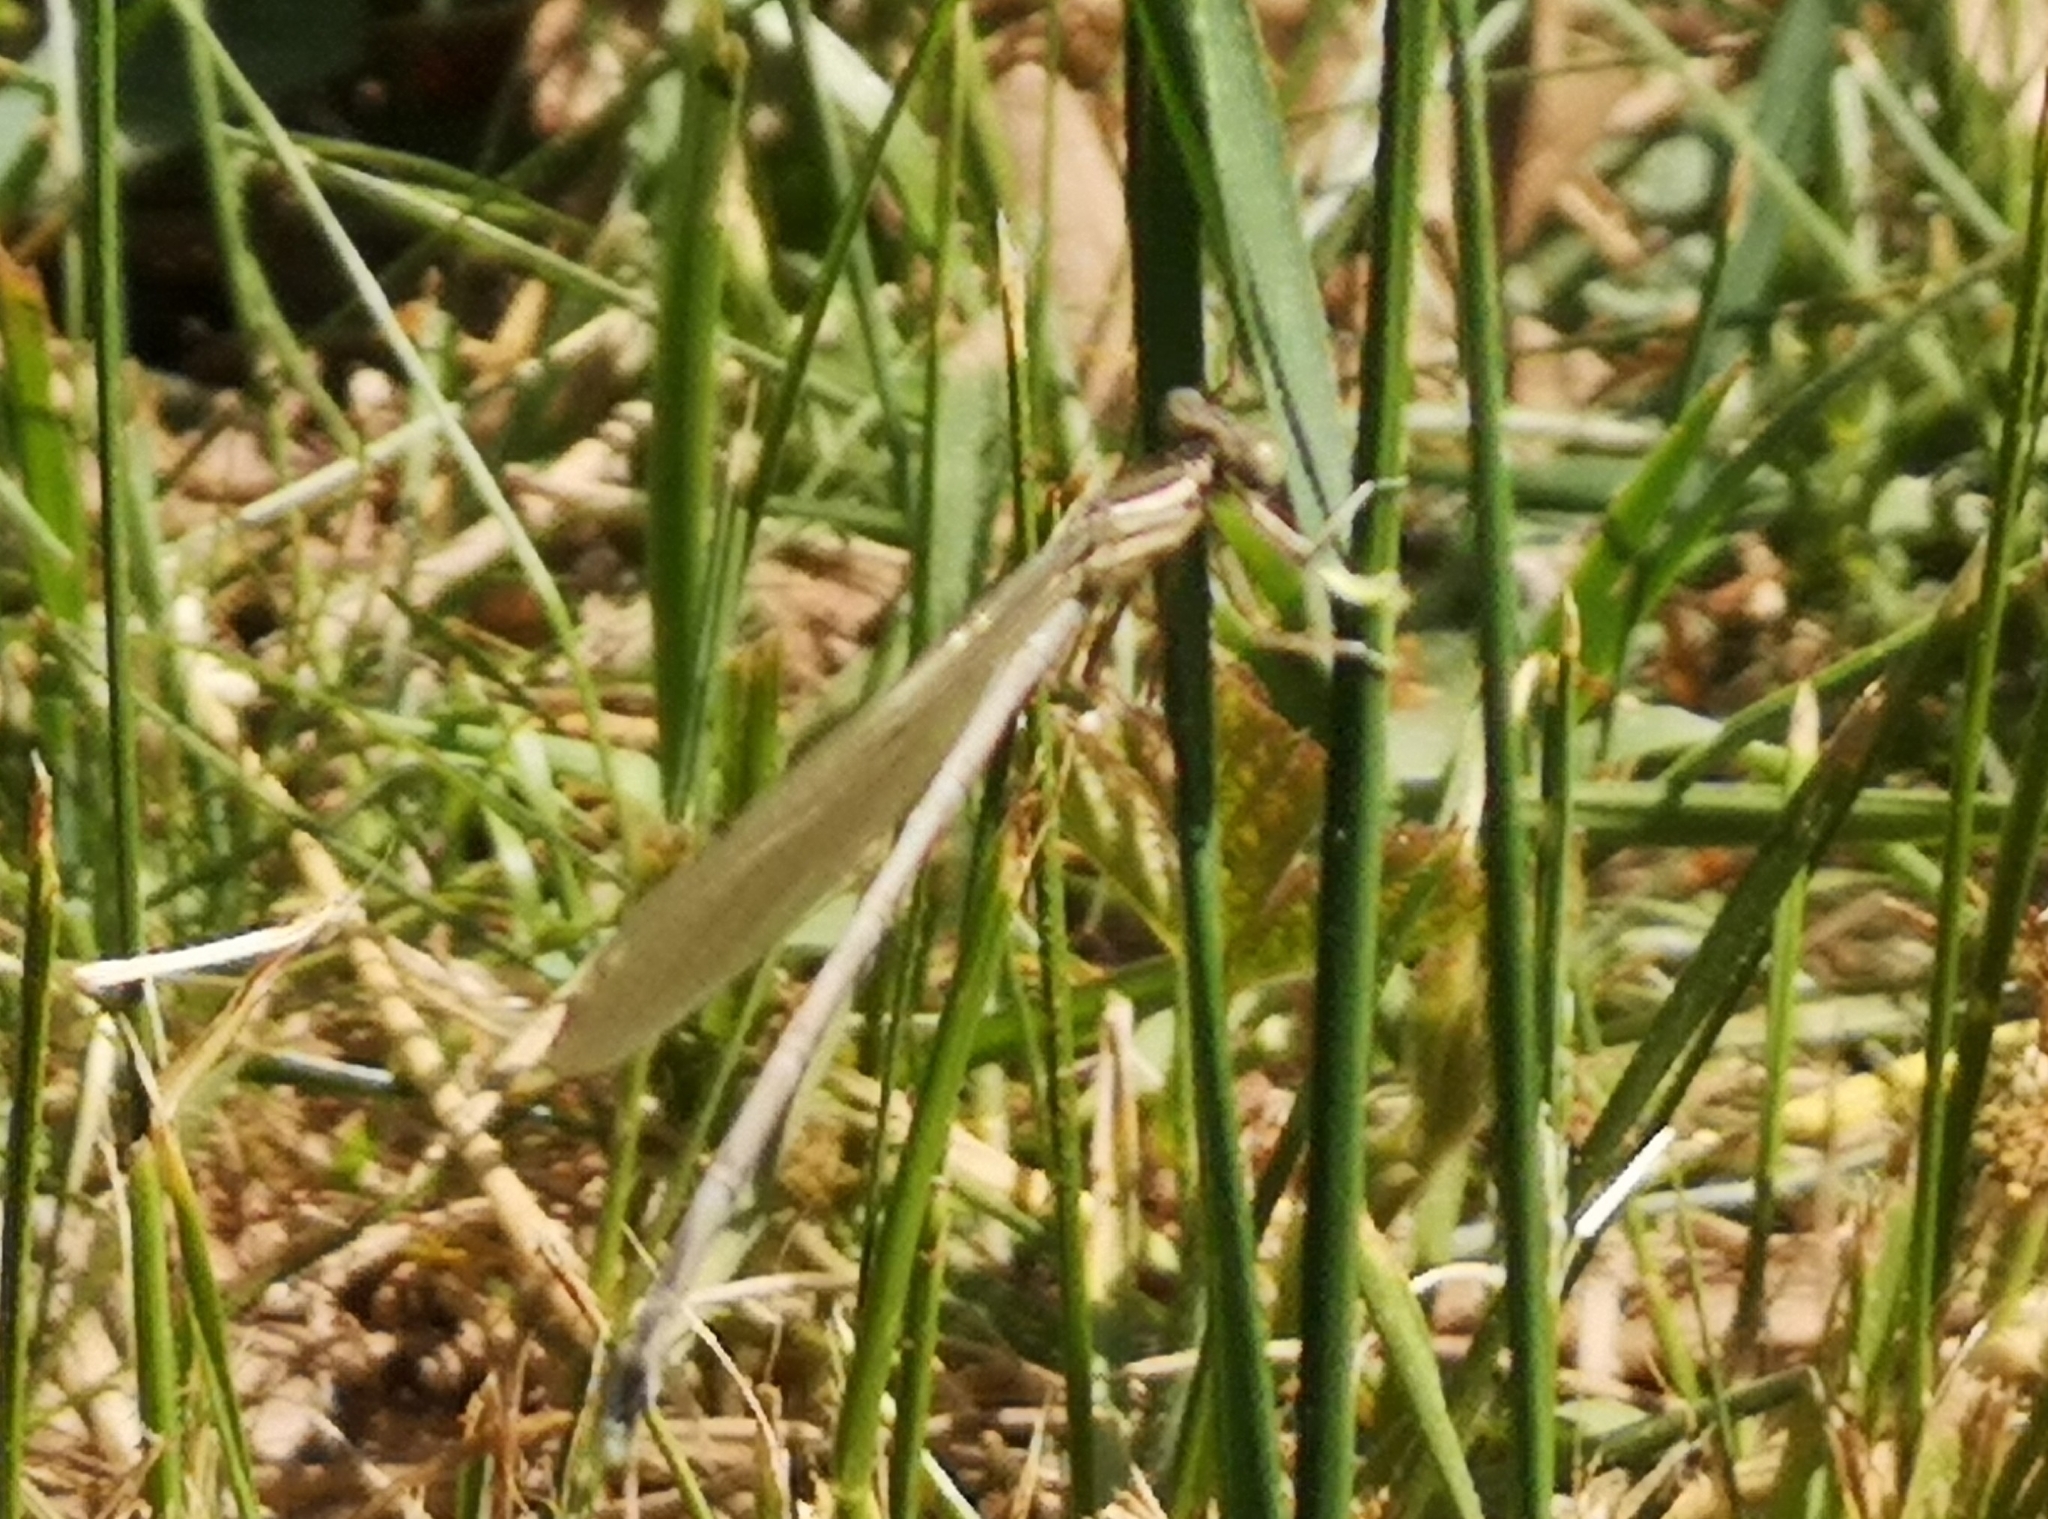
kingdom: Animalia
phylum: Arthropoda
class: Insecta
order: Odonata
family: Platycnemididae
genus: Platycnemis
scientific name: Platycnemis pennipes
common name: White-legged damselfly
